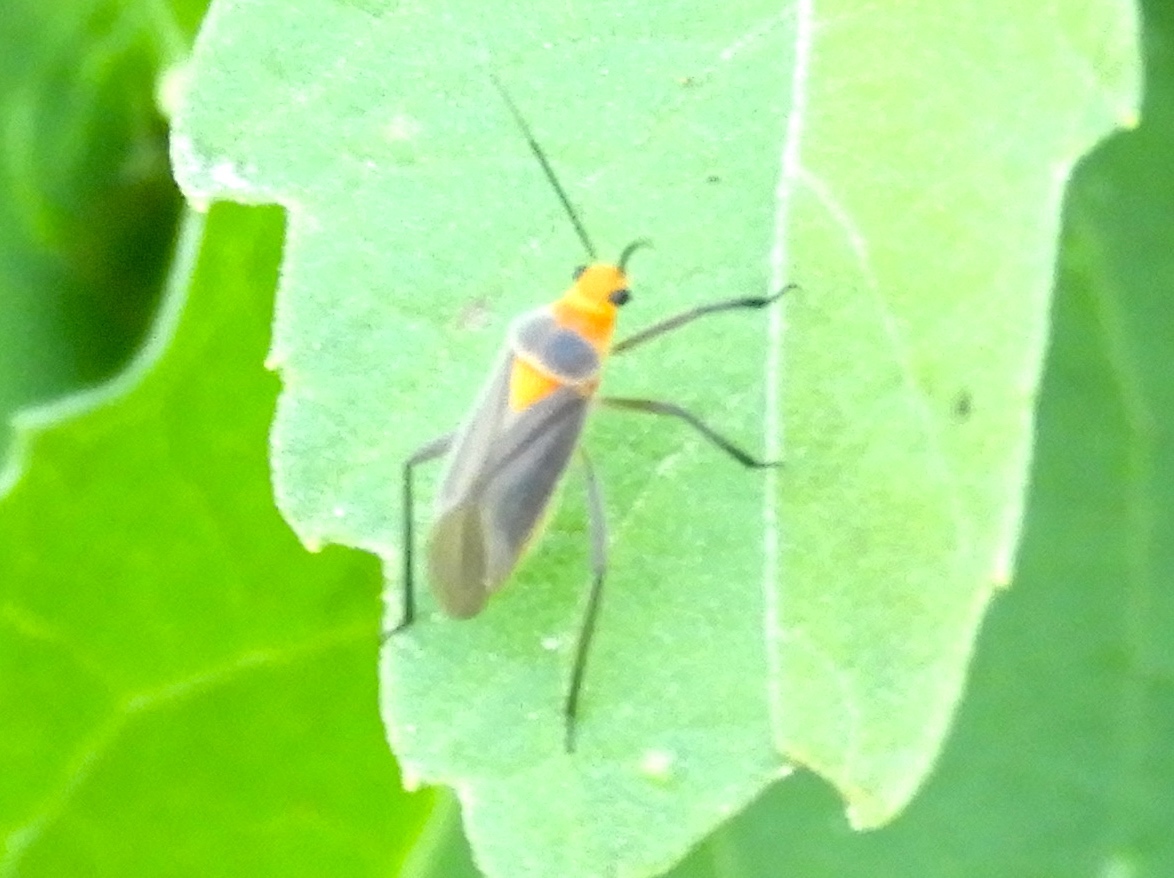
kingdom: Animalia
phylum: Arthropoda
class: Insecta
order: Hemiptera
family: Miridae
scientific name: Miridae
